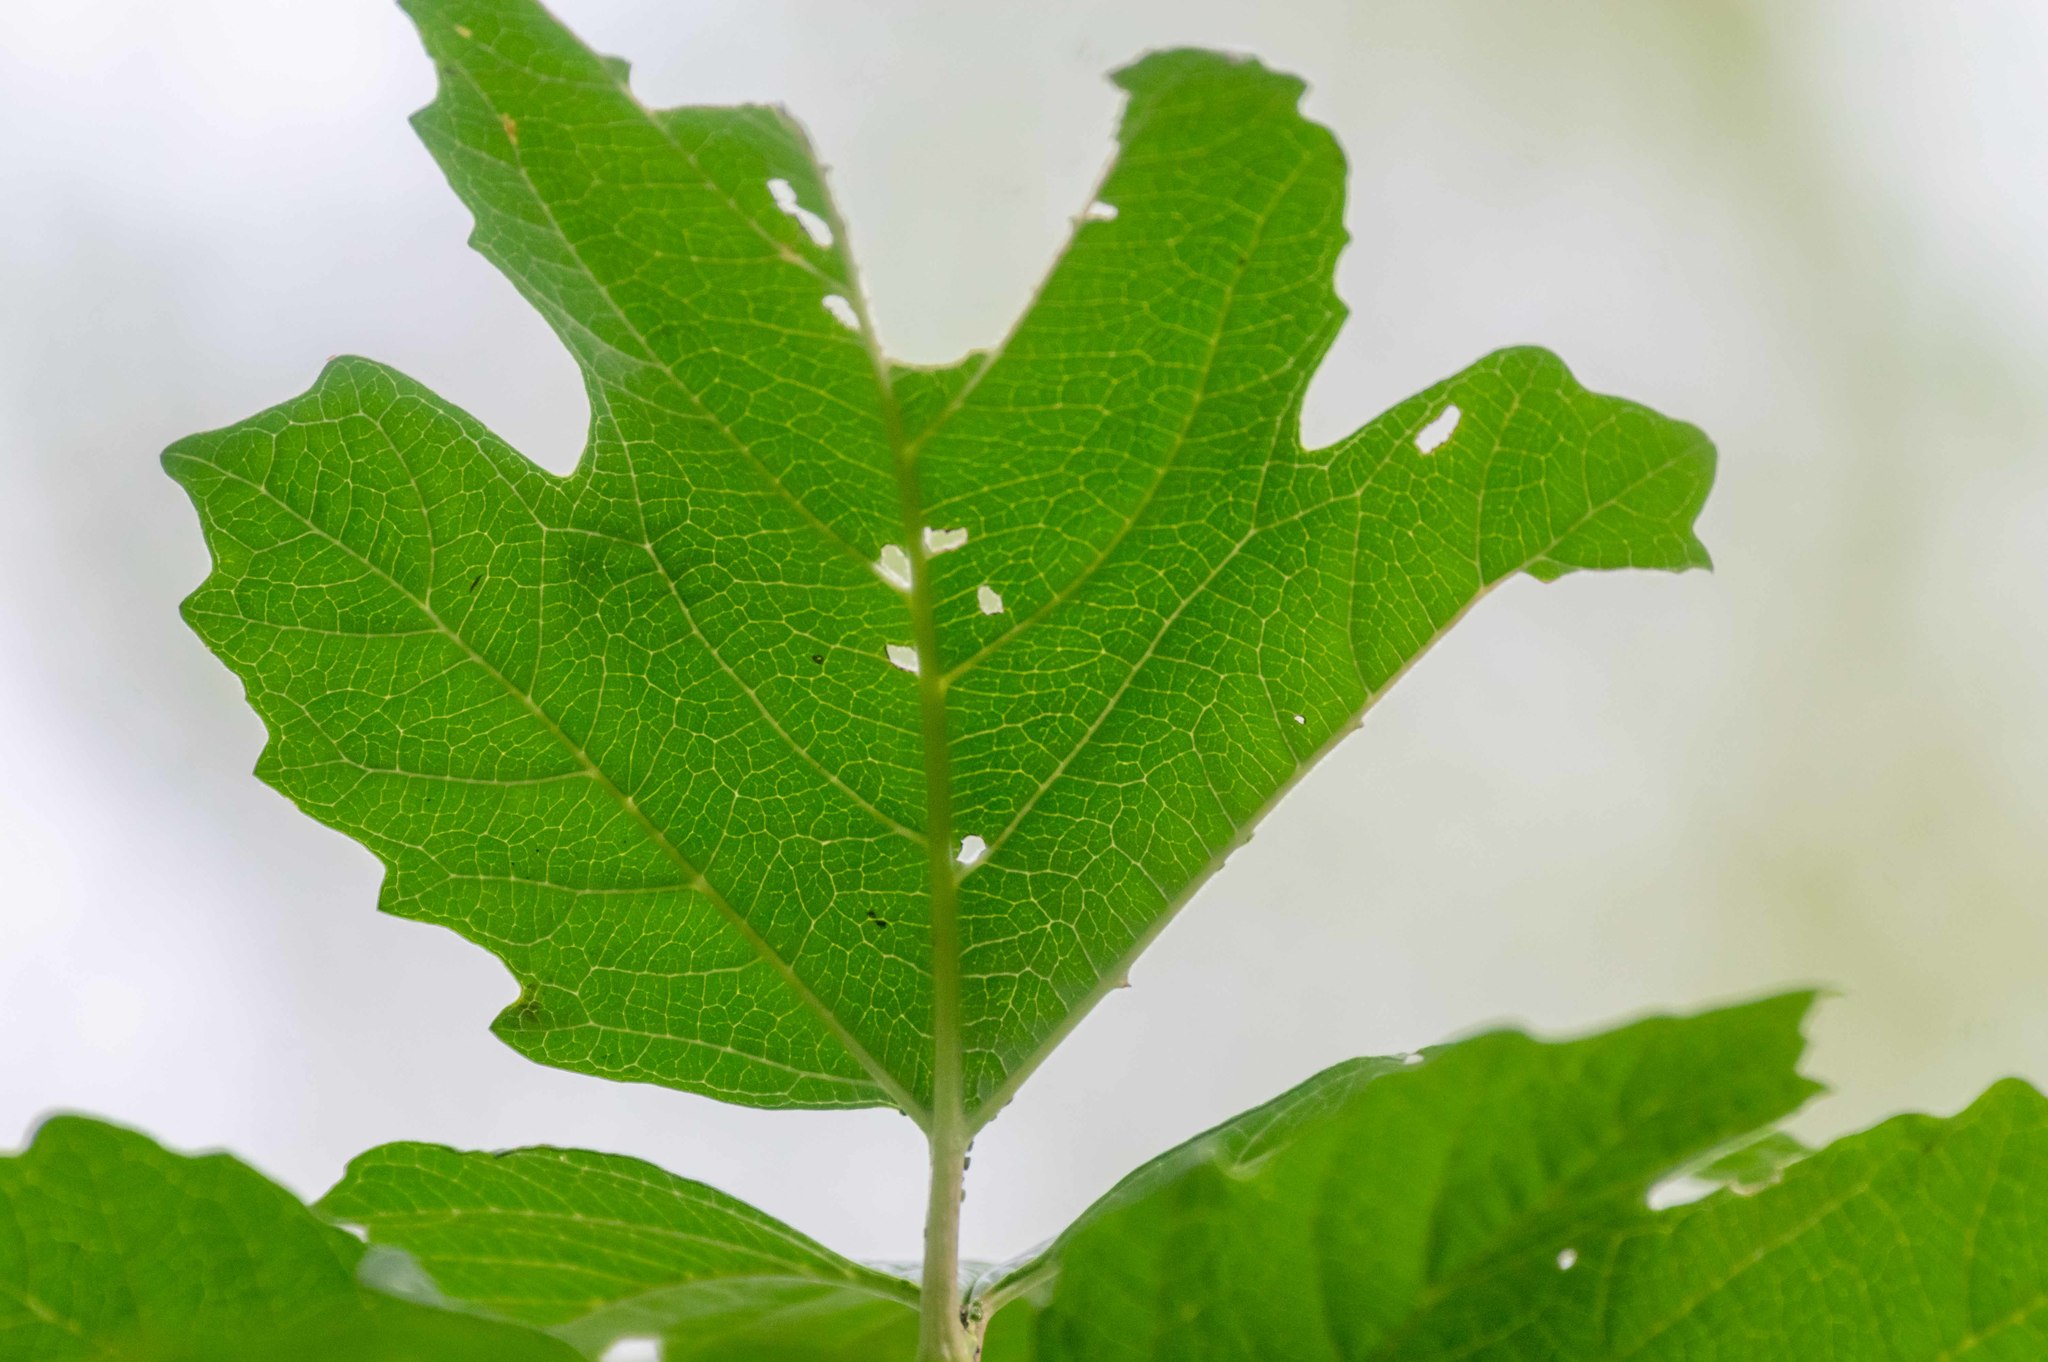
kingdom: Plantae
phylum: Tracheophyta
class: Magnoliopsida
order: Dipsacales
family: Viburnaceae
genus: Viburnum
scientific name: Viburnum opulus
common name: Guelder-rose
